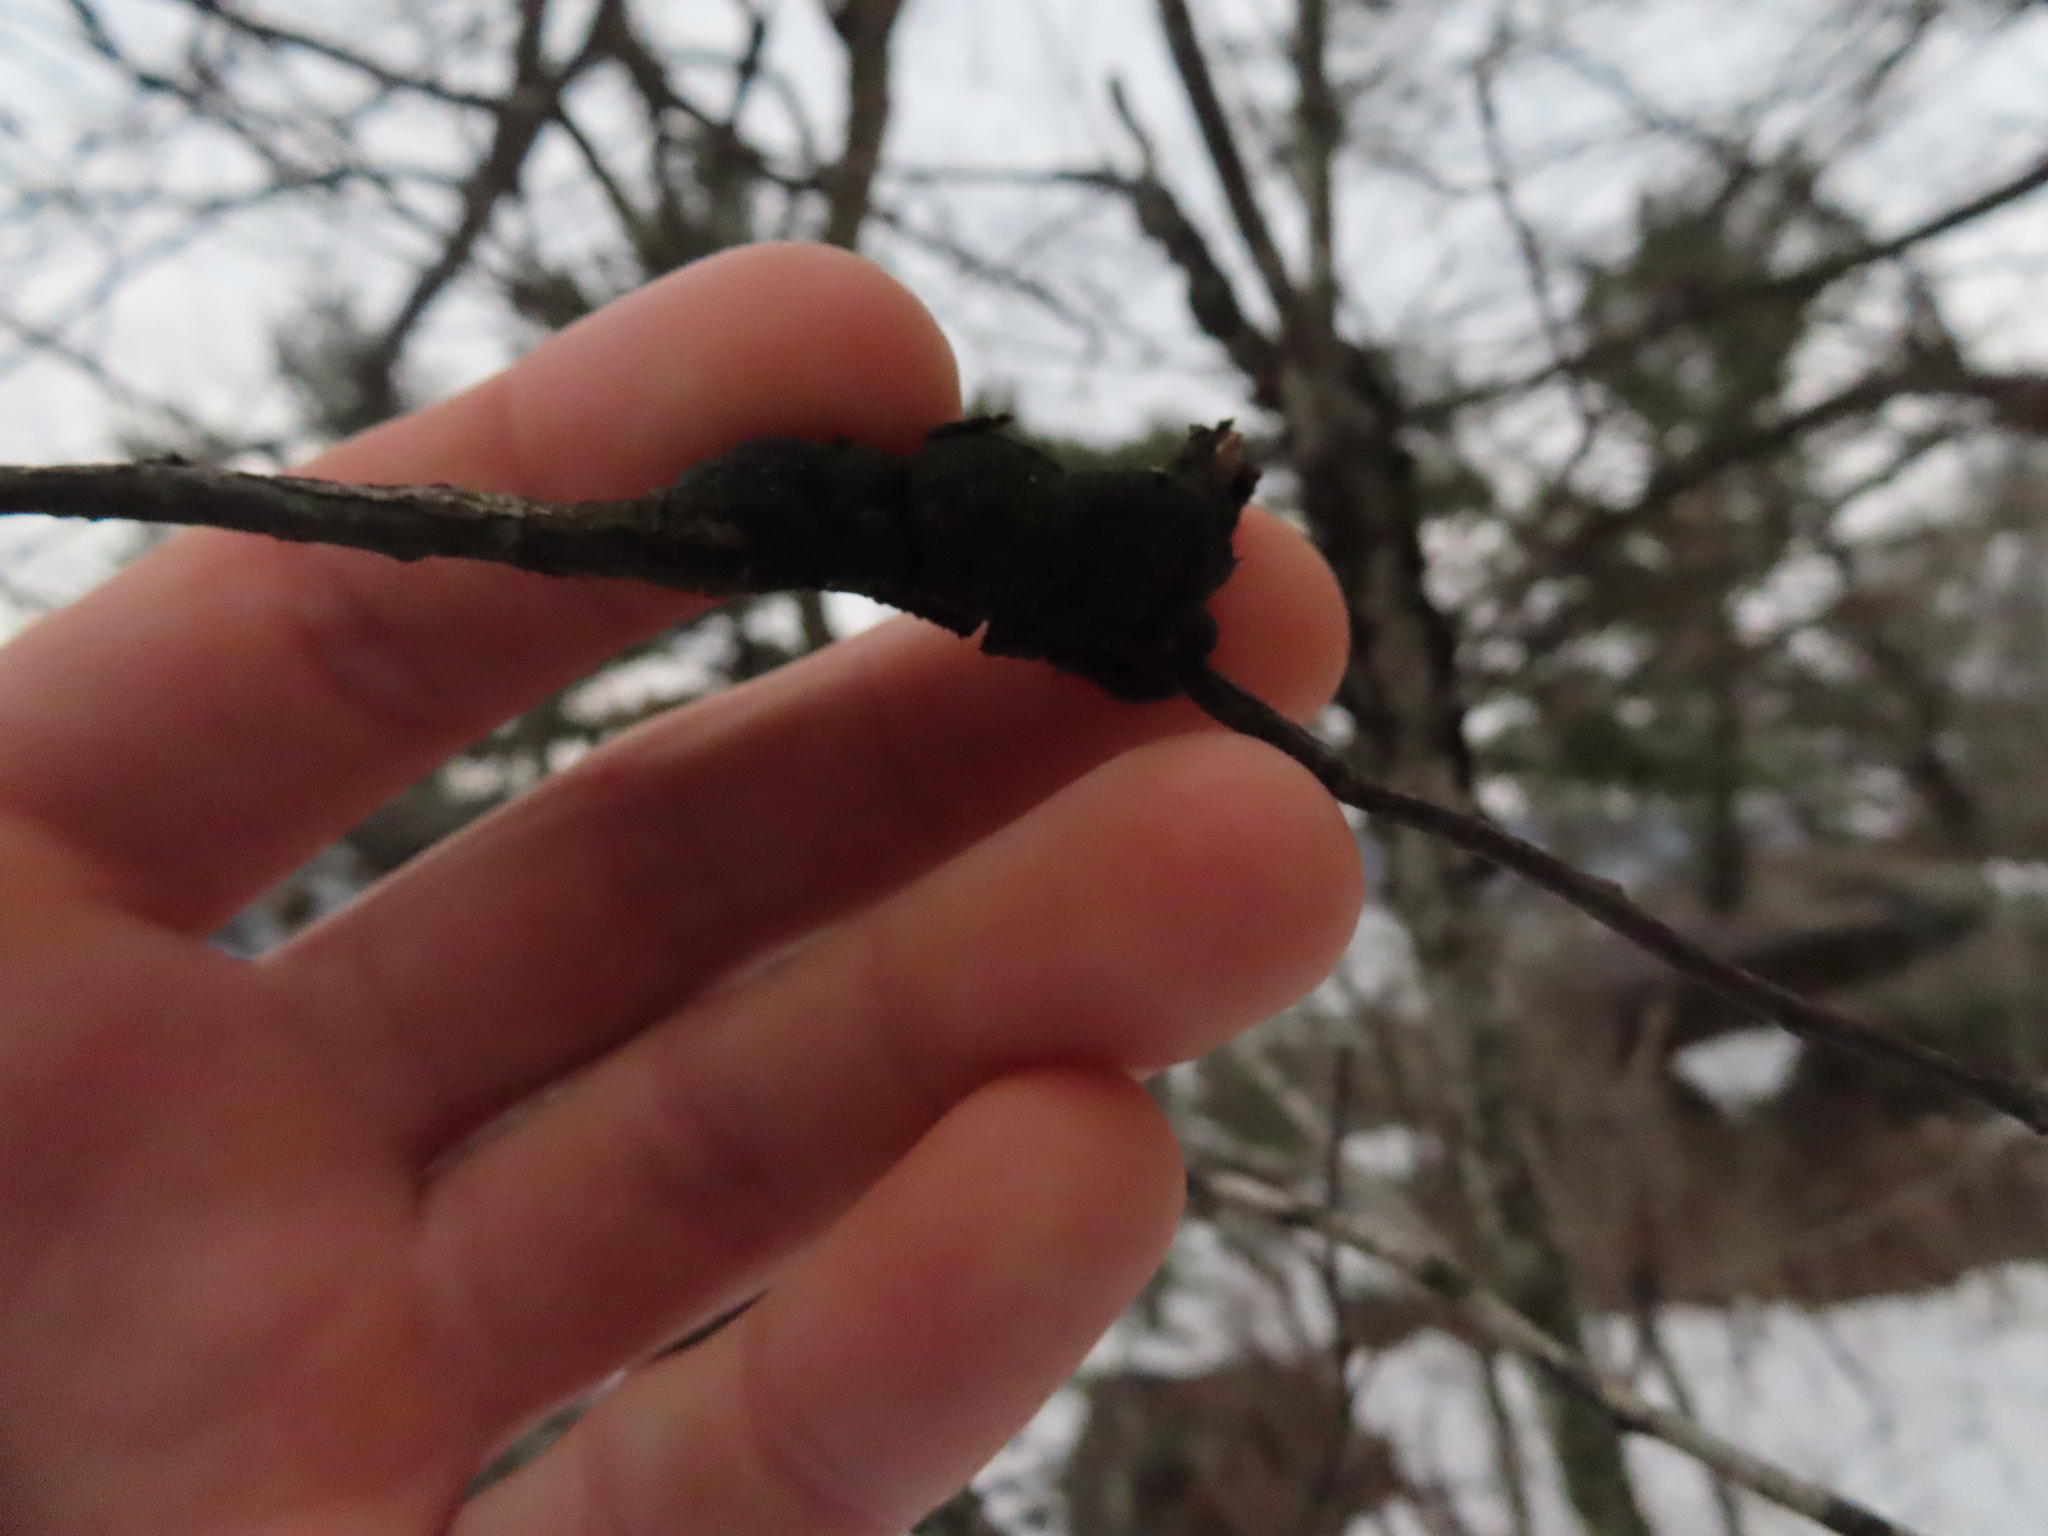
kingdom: Fungi
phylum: Ascomycota
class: Dothideomycetes
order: Venturiales
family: Venturiaceae
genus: Apiosporina
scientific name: Apiosporina morbosa
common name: Black knot
